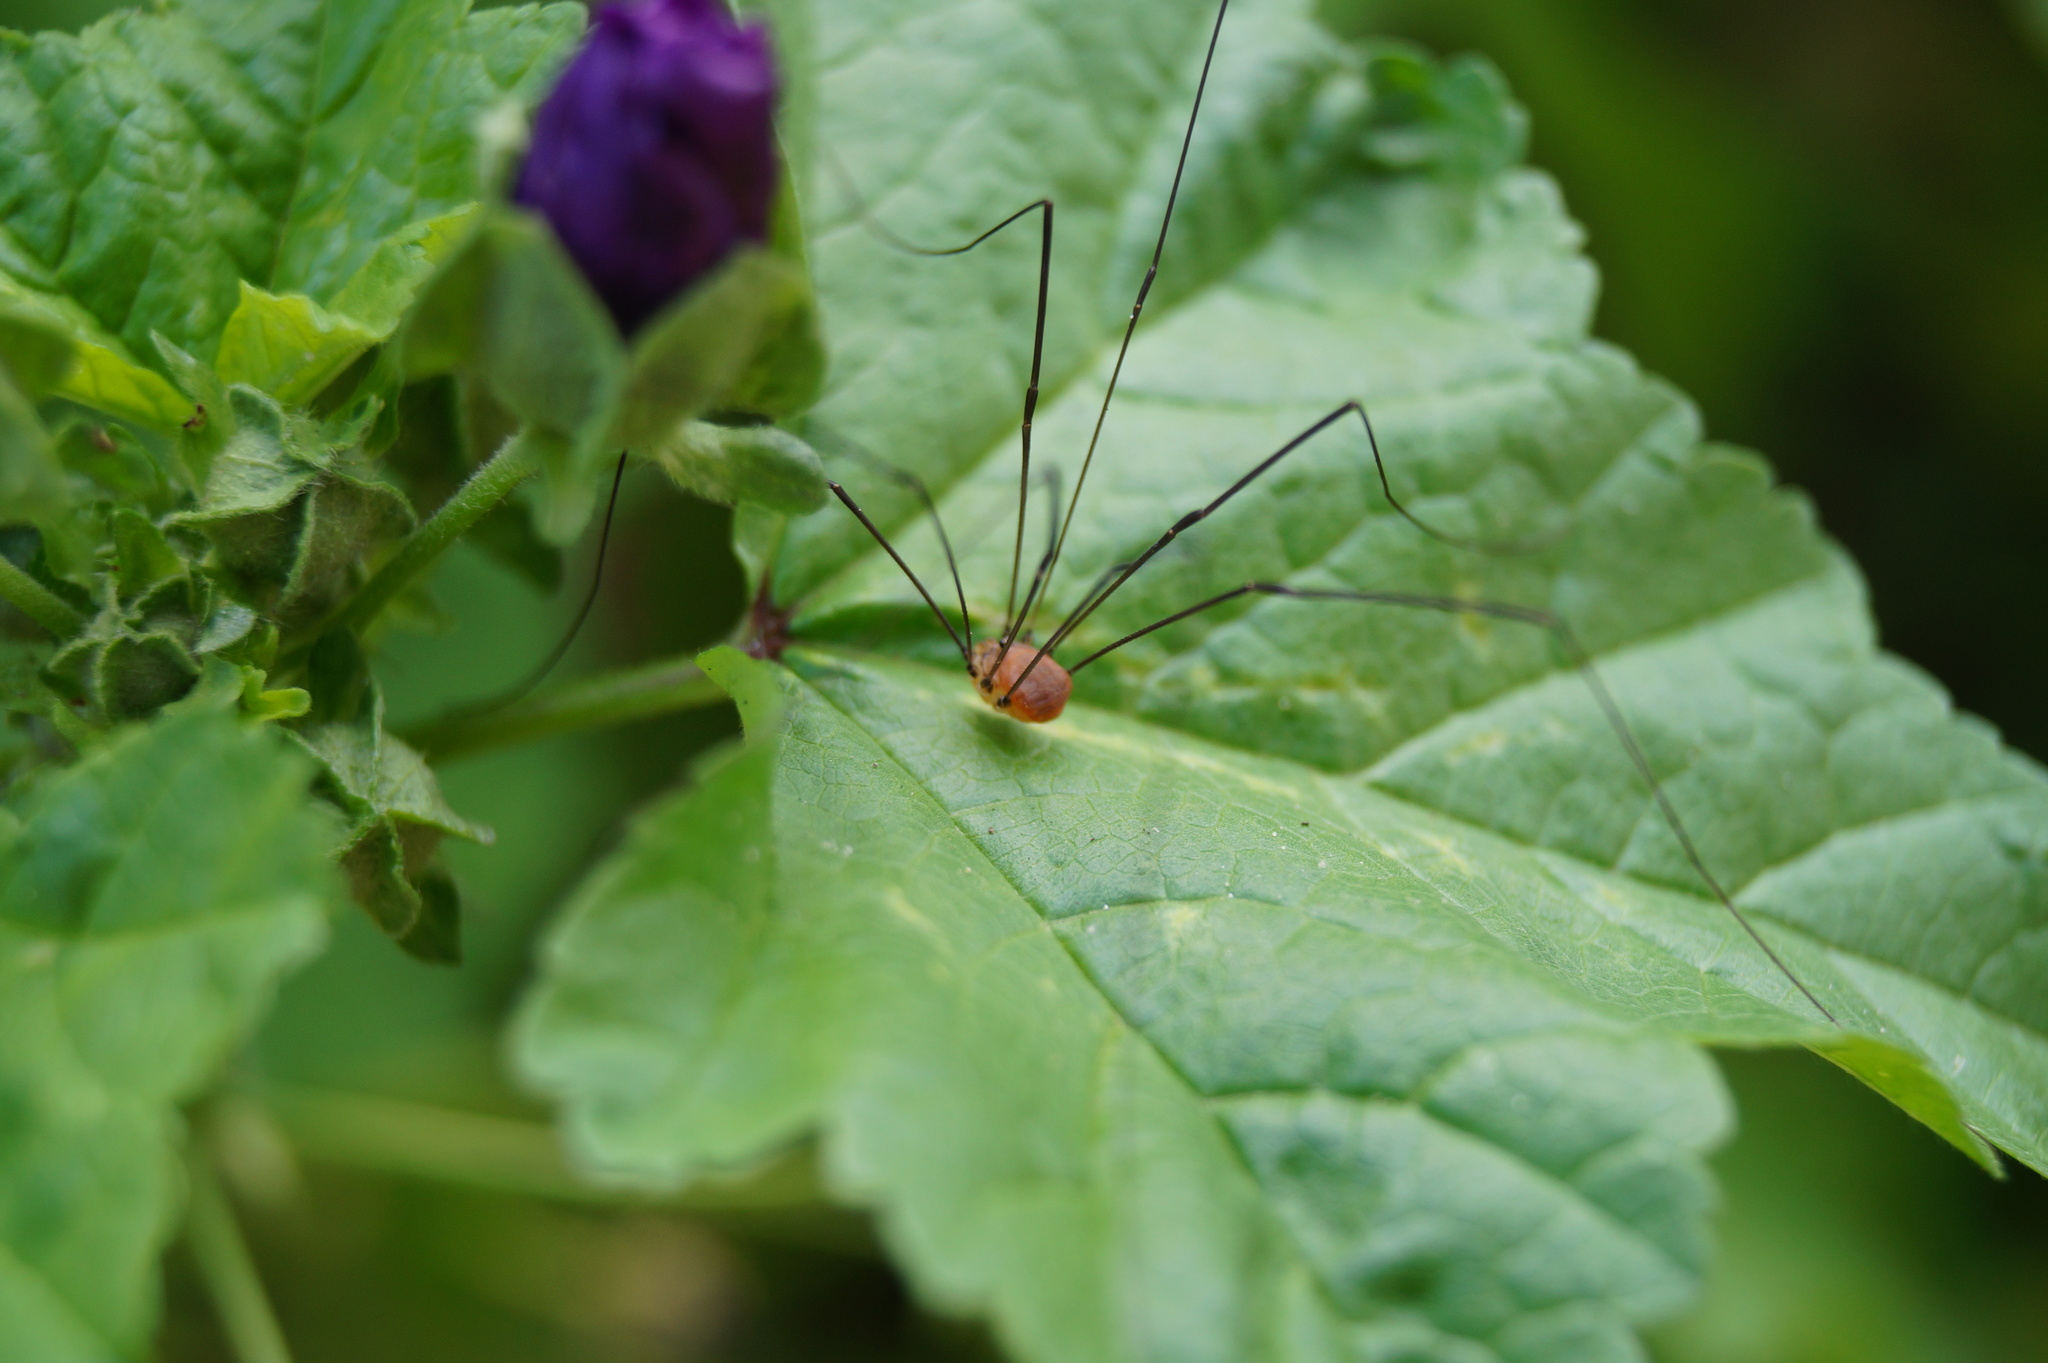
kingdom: Animalia
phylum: Arthropoda
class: Arachnida
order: Opiliones
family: Sclerosomatidae
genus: Leiobunum
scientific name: Leiobunum rotundum
